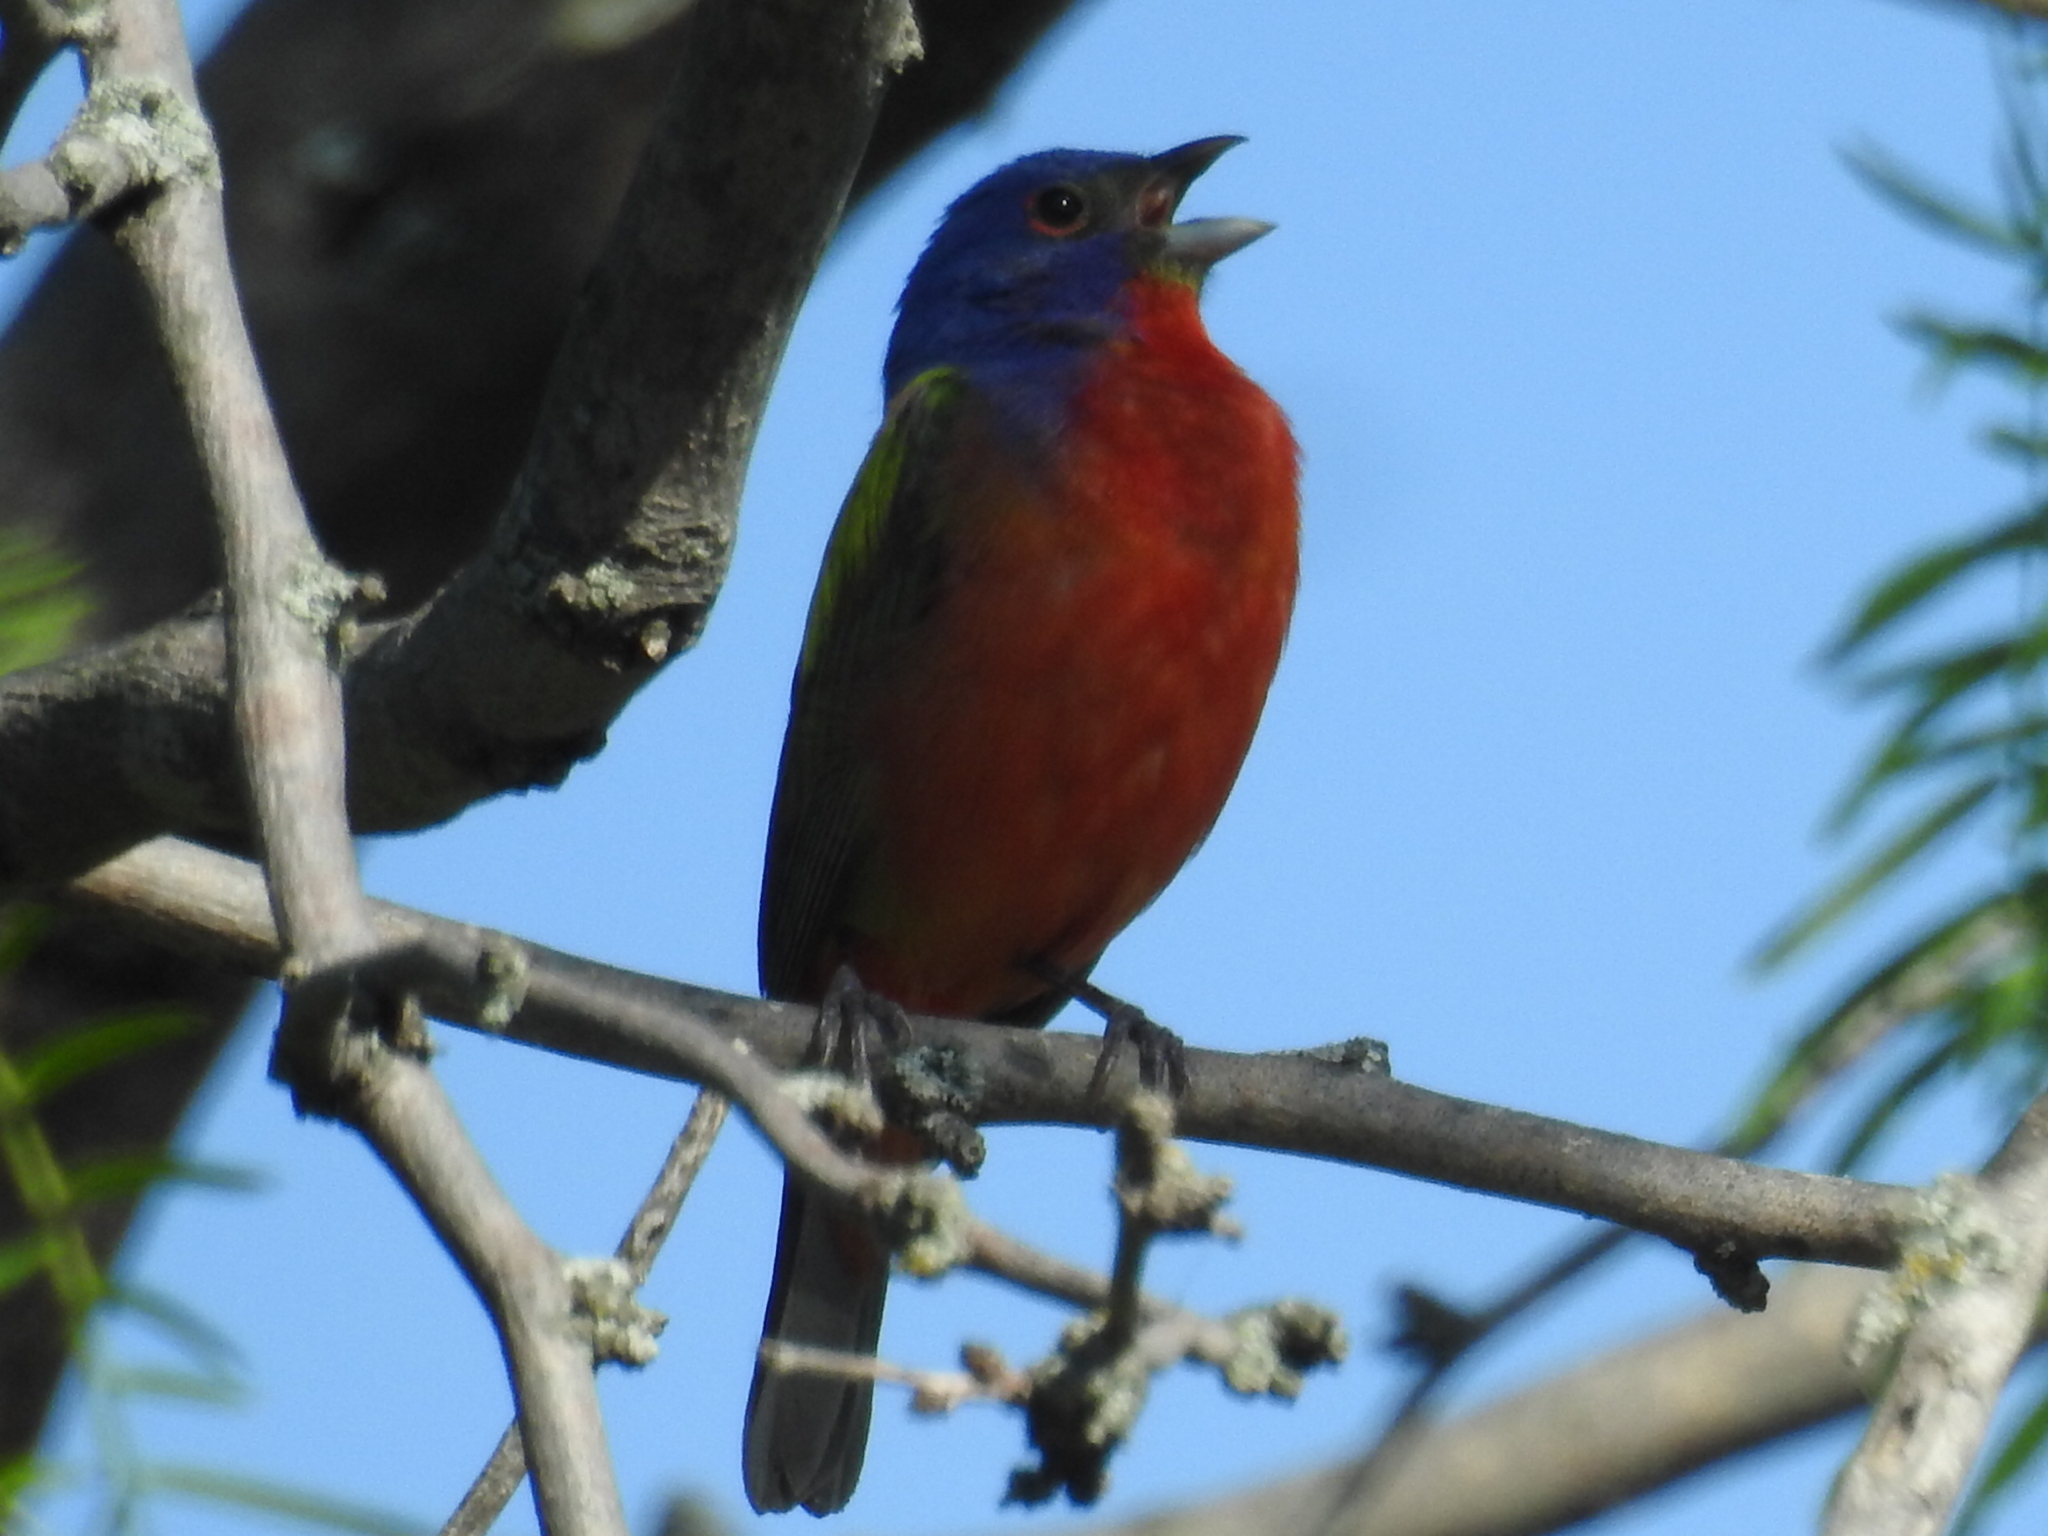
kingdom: Animalia
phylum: Chordata
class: Aves
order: Passeriformes
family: Cardinalidae
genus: Passerina
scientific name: Passerina ciris
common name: Painted bunting
